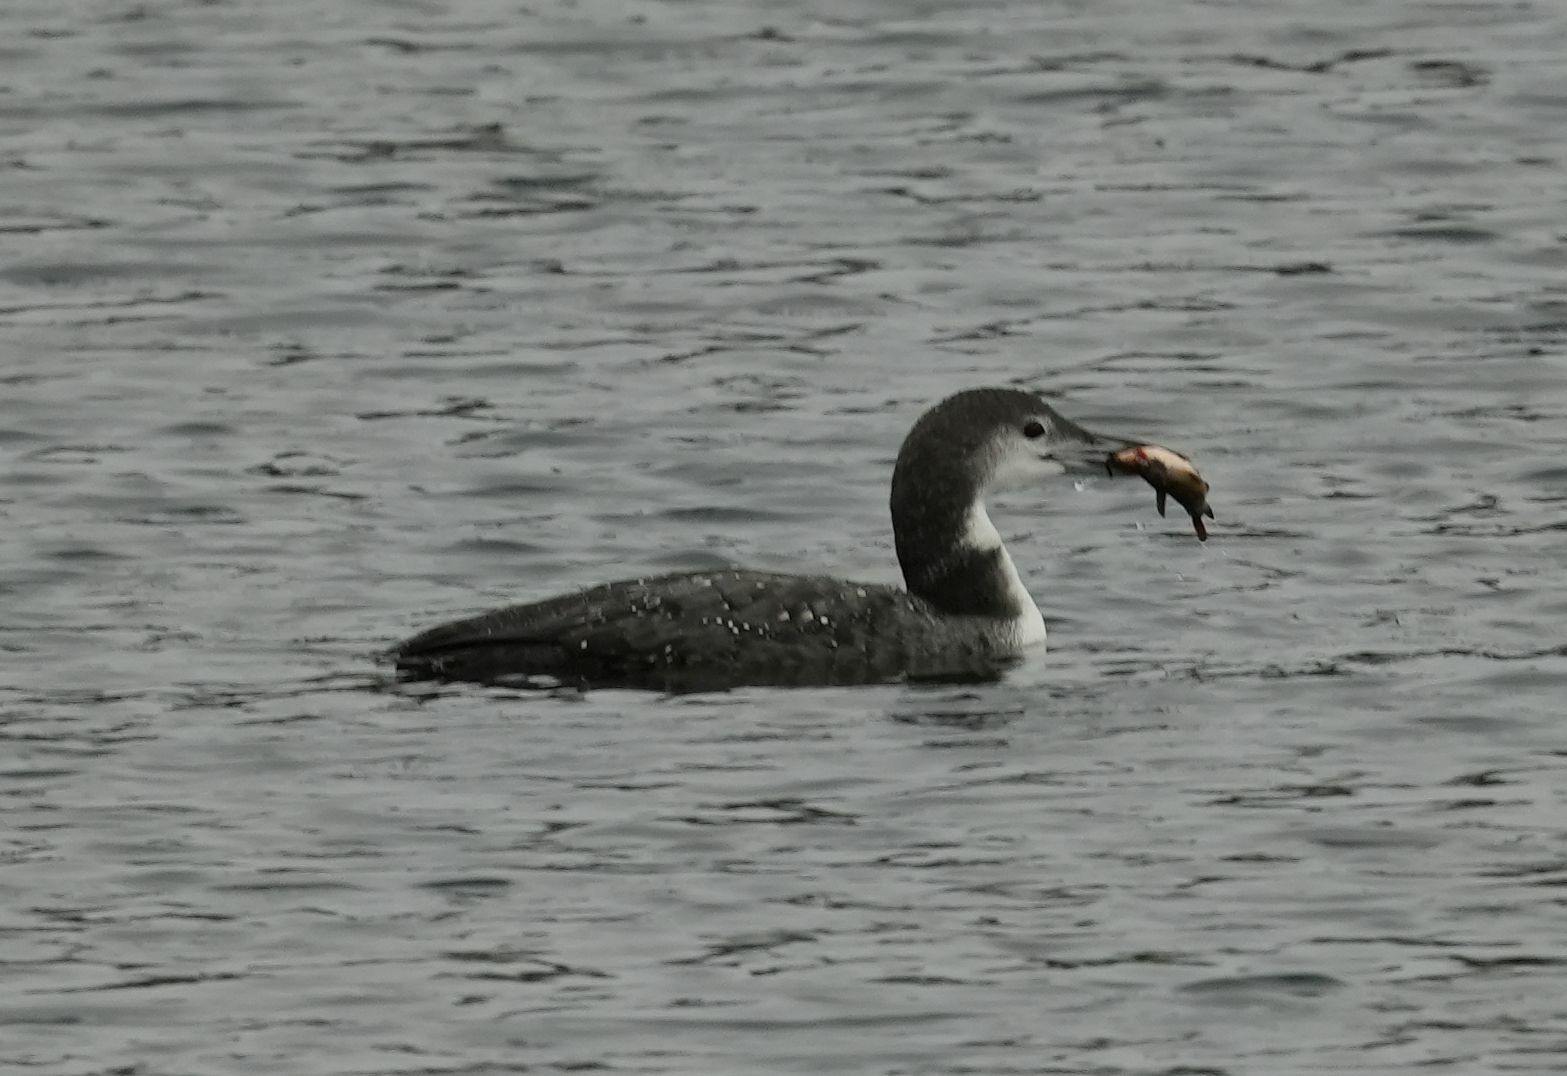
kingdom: Animalia
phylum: Chordata
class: Aves
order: Gaviiformes
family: Gaviidae
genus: Gavia
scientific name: Gavia immer
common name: Common loon
